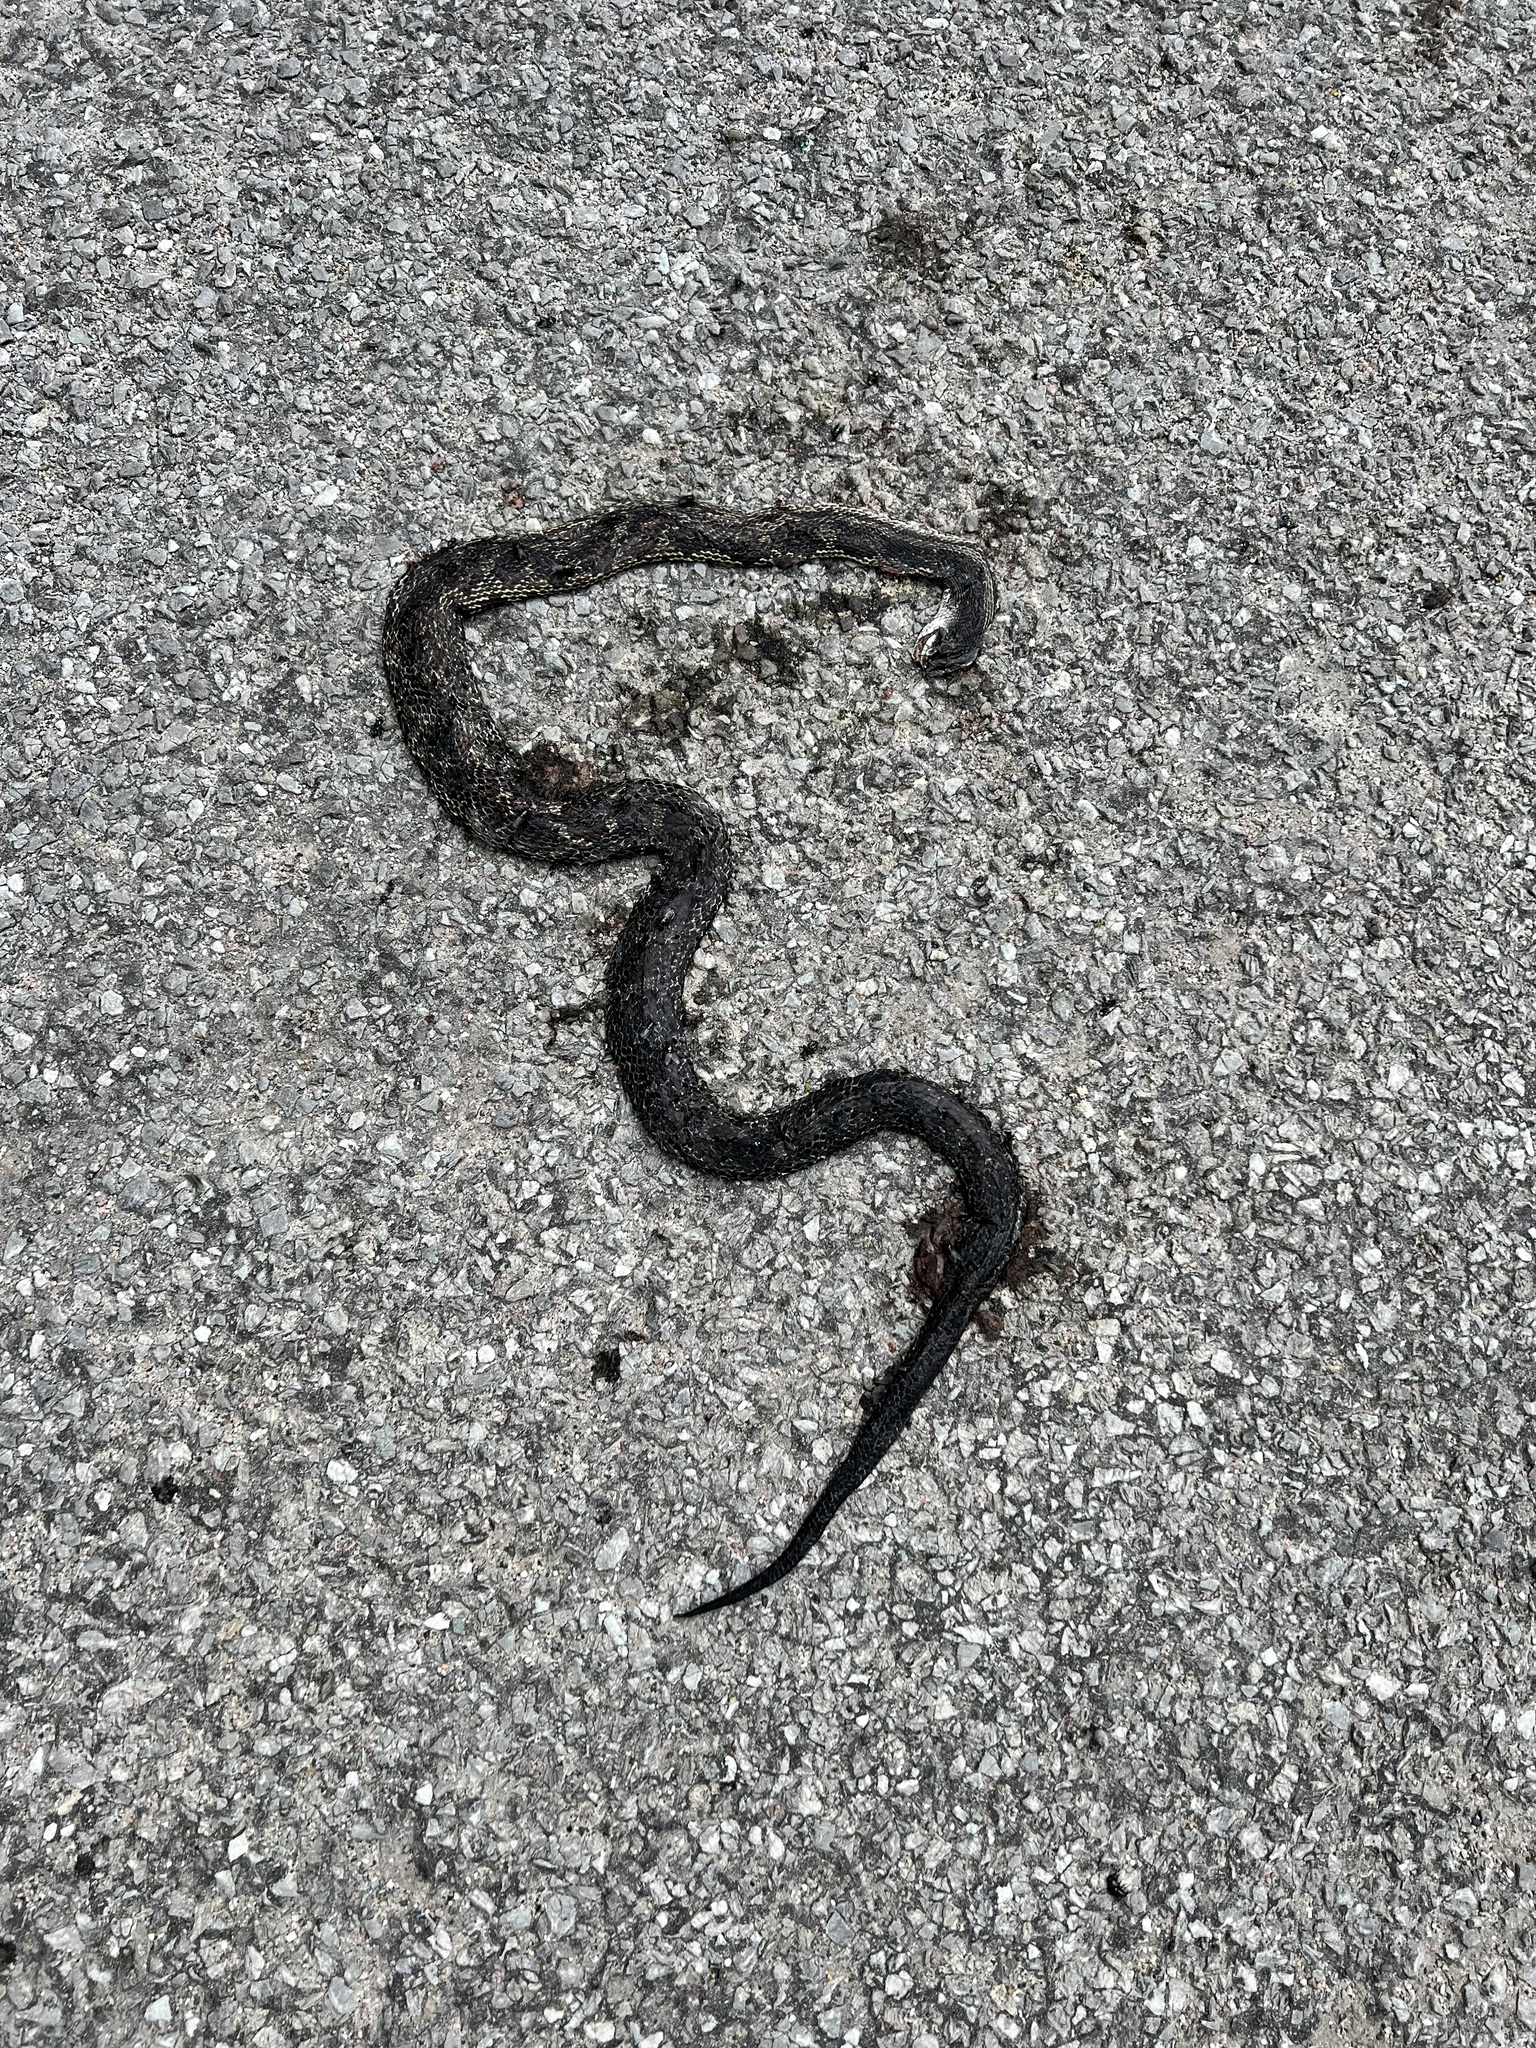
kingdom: Animalia
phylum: Chordata
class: Squamata
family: Colubridae
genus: Pantherophis
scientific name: Pantherophis spiloides
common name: Gray rat snake
